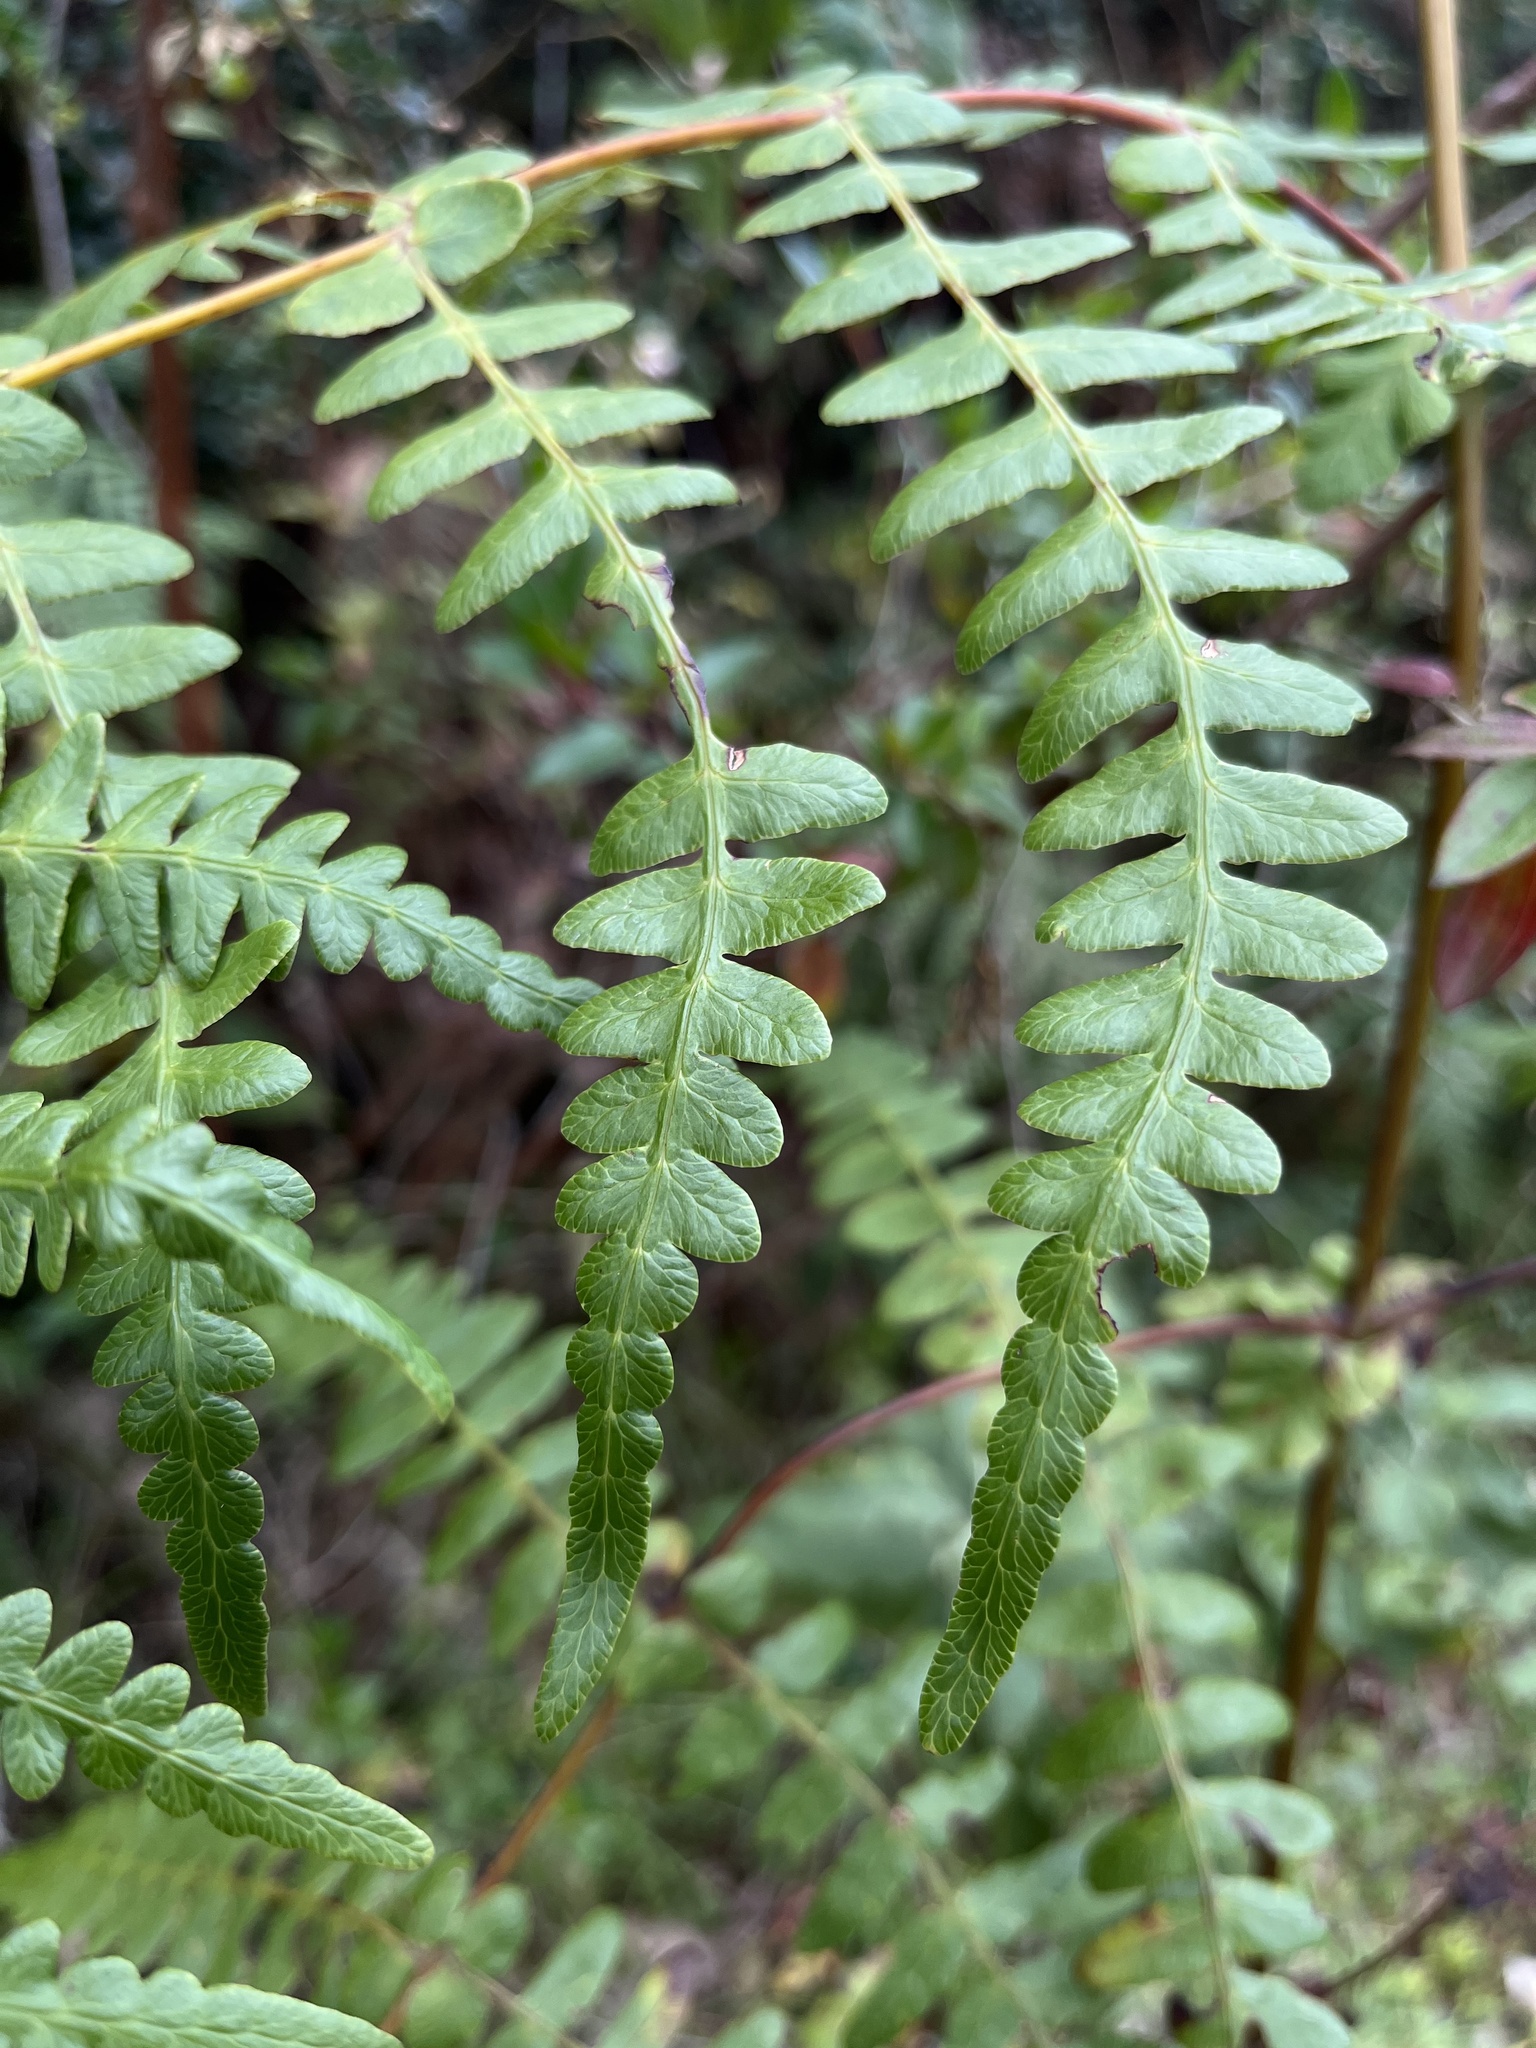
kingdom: Plantae
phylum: Tracheophyta
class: Polypodiopsida
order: Polypodiales
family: Dennstaedtiaceae
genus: Histiopteris
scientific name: Histiopteris incisa
